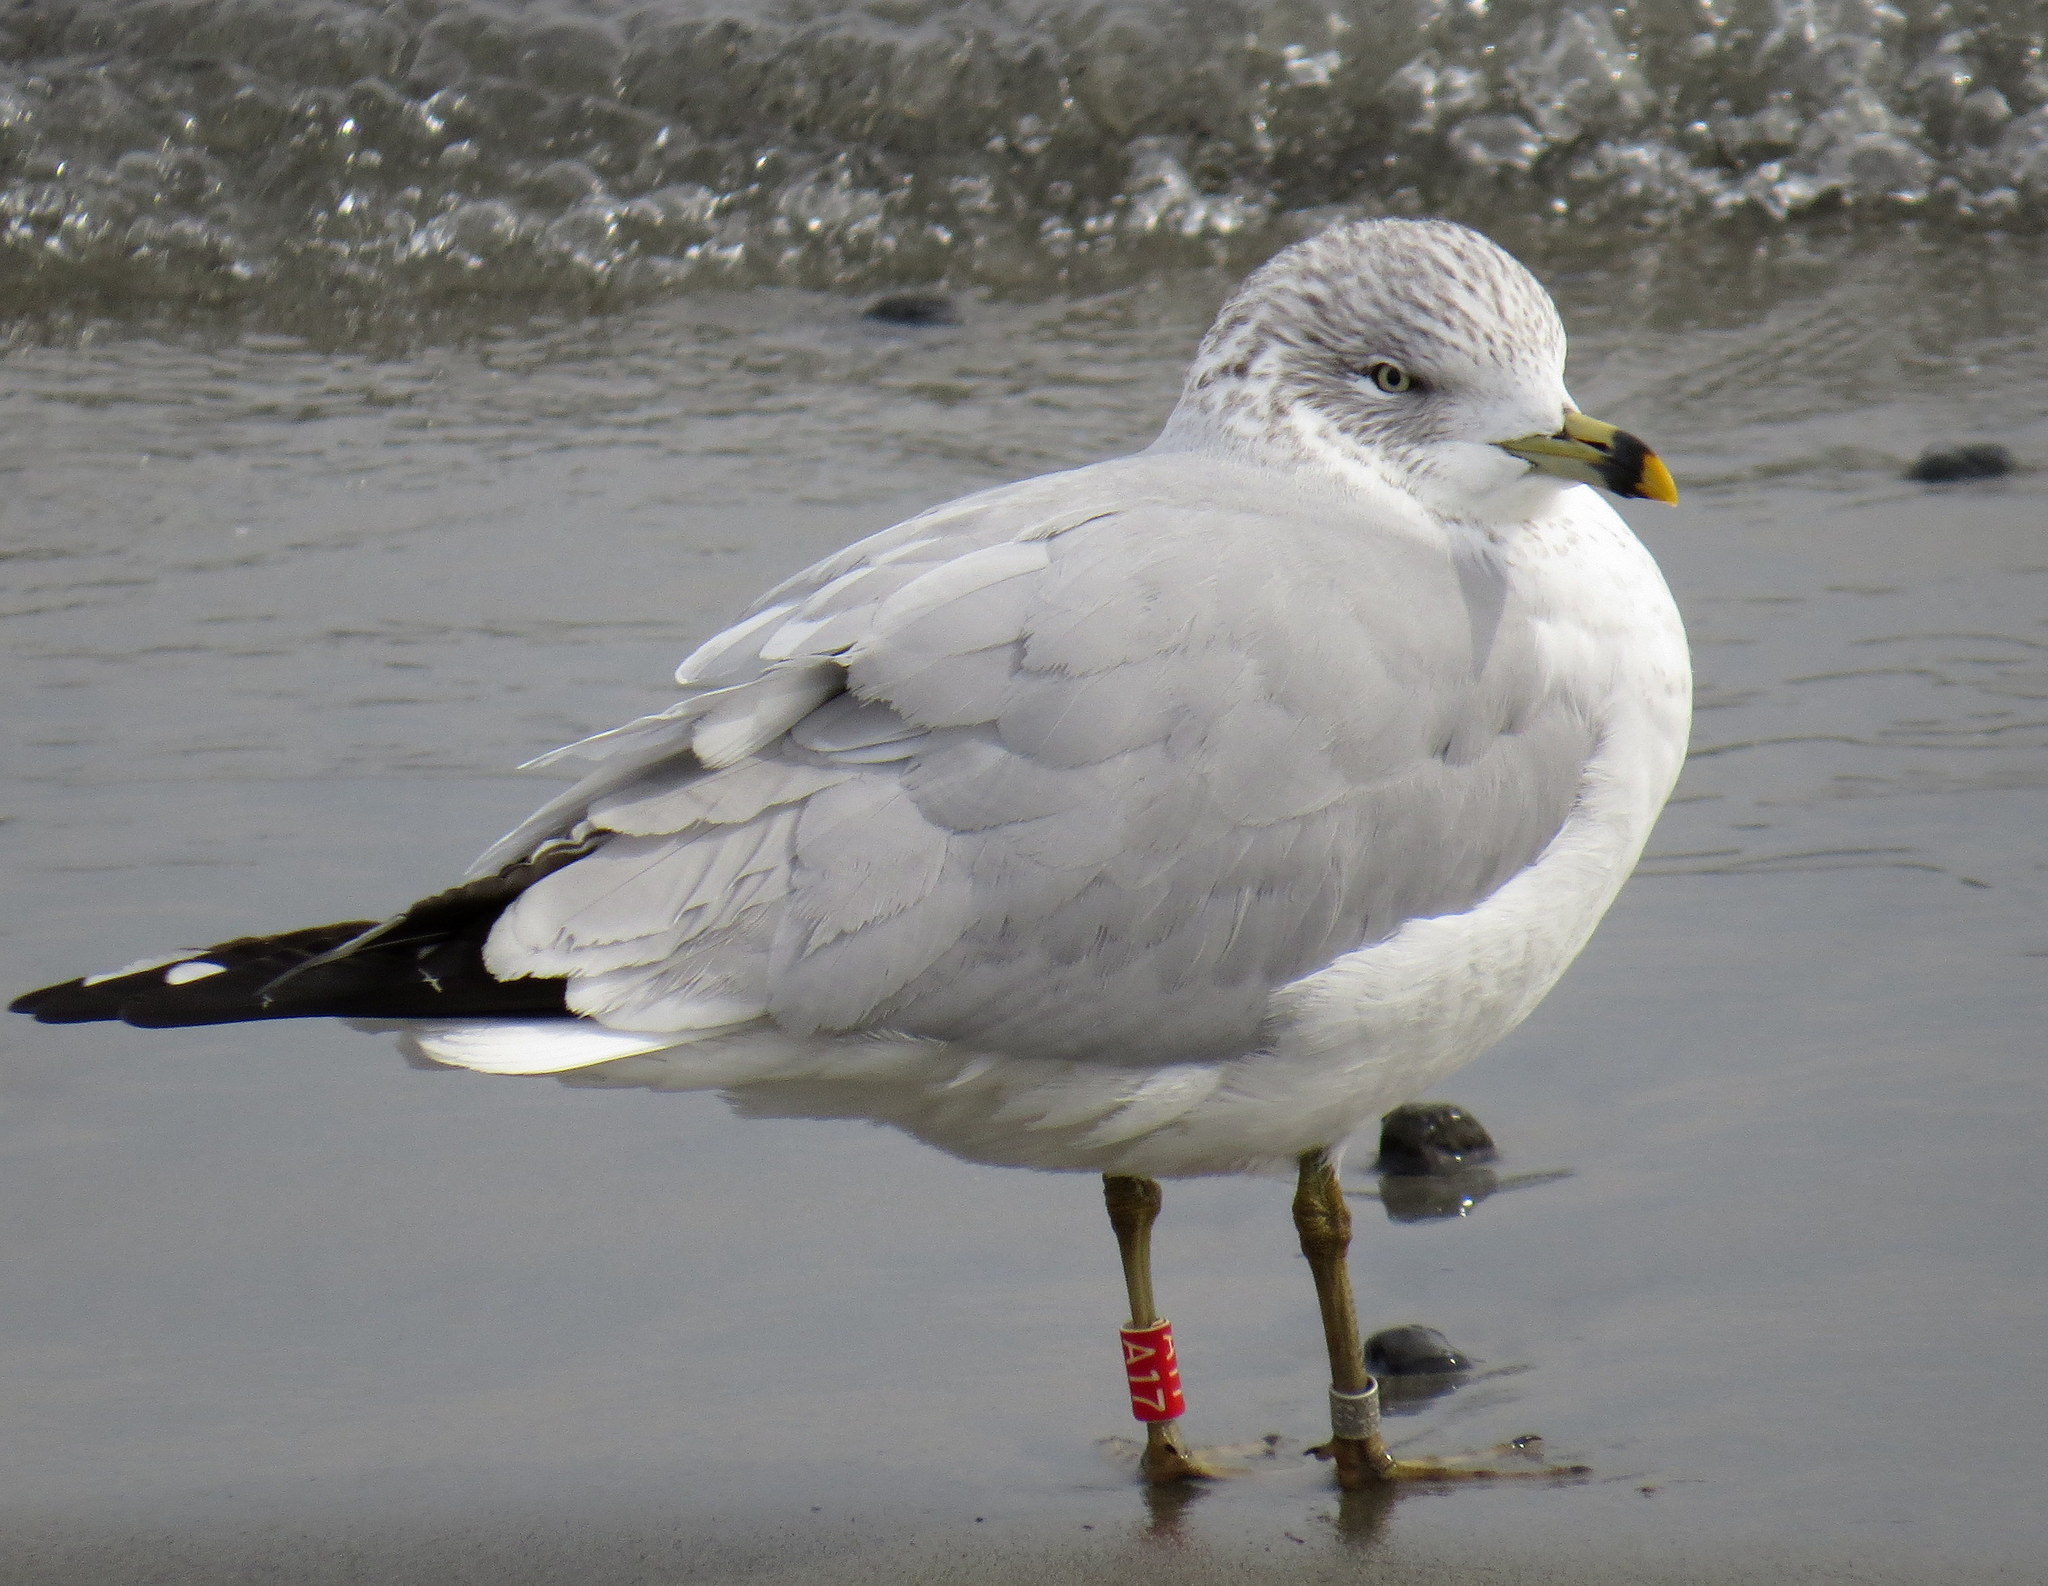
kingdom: Animalia
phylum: Chordata
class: Aves
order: Charadriiformes
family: Laridae
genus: Larus
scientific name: Larus delawarensis
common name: Ring-billed gull
